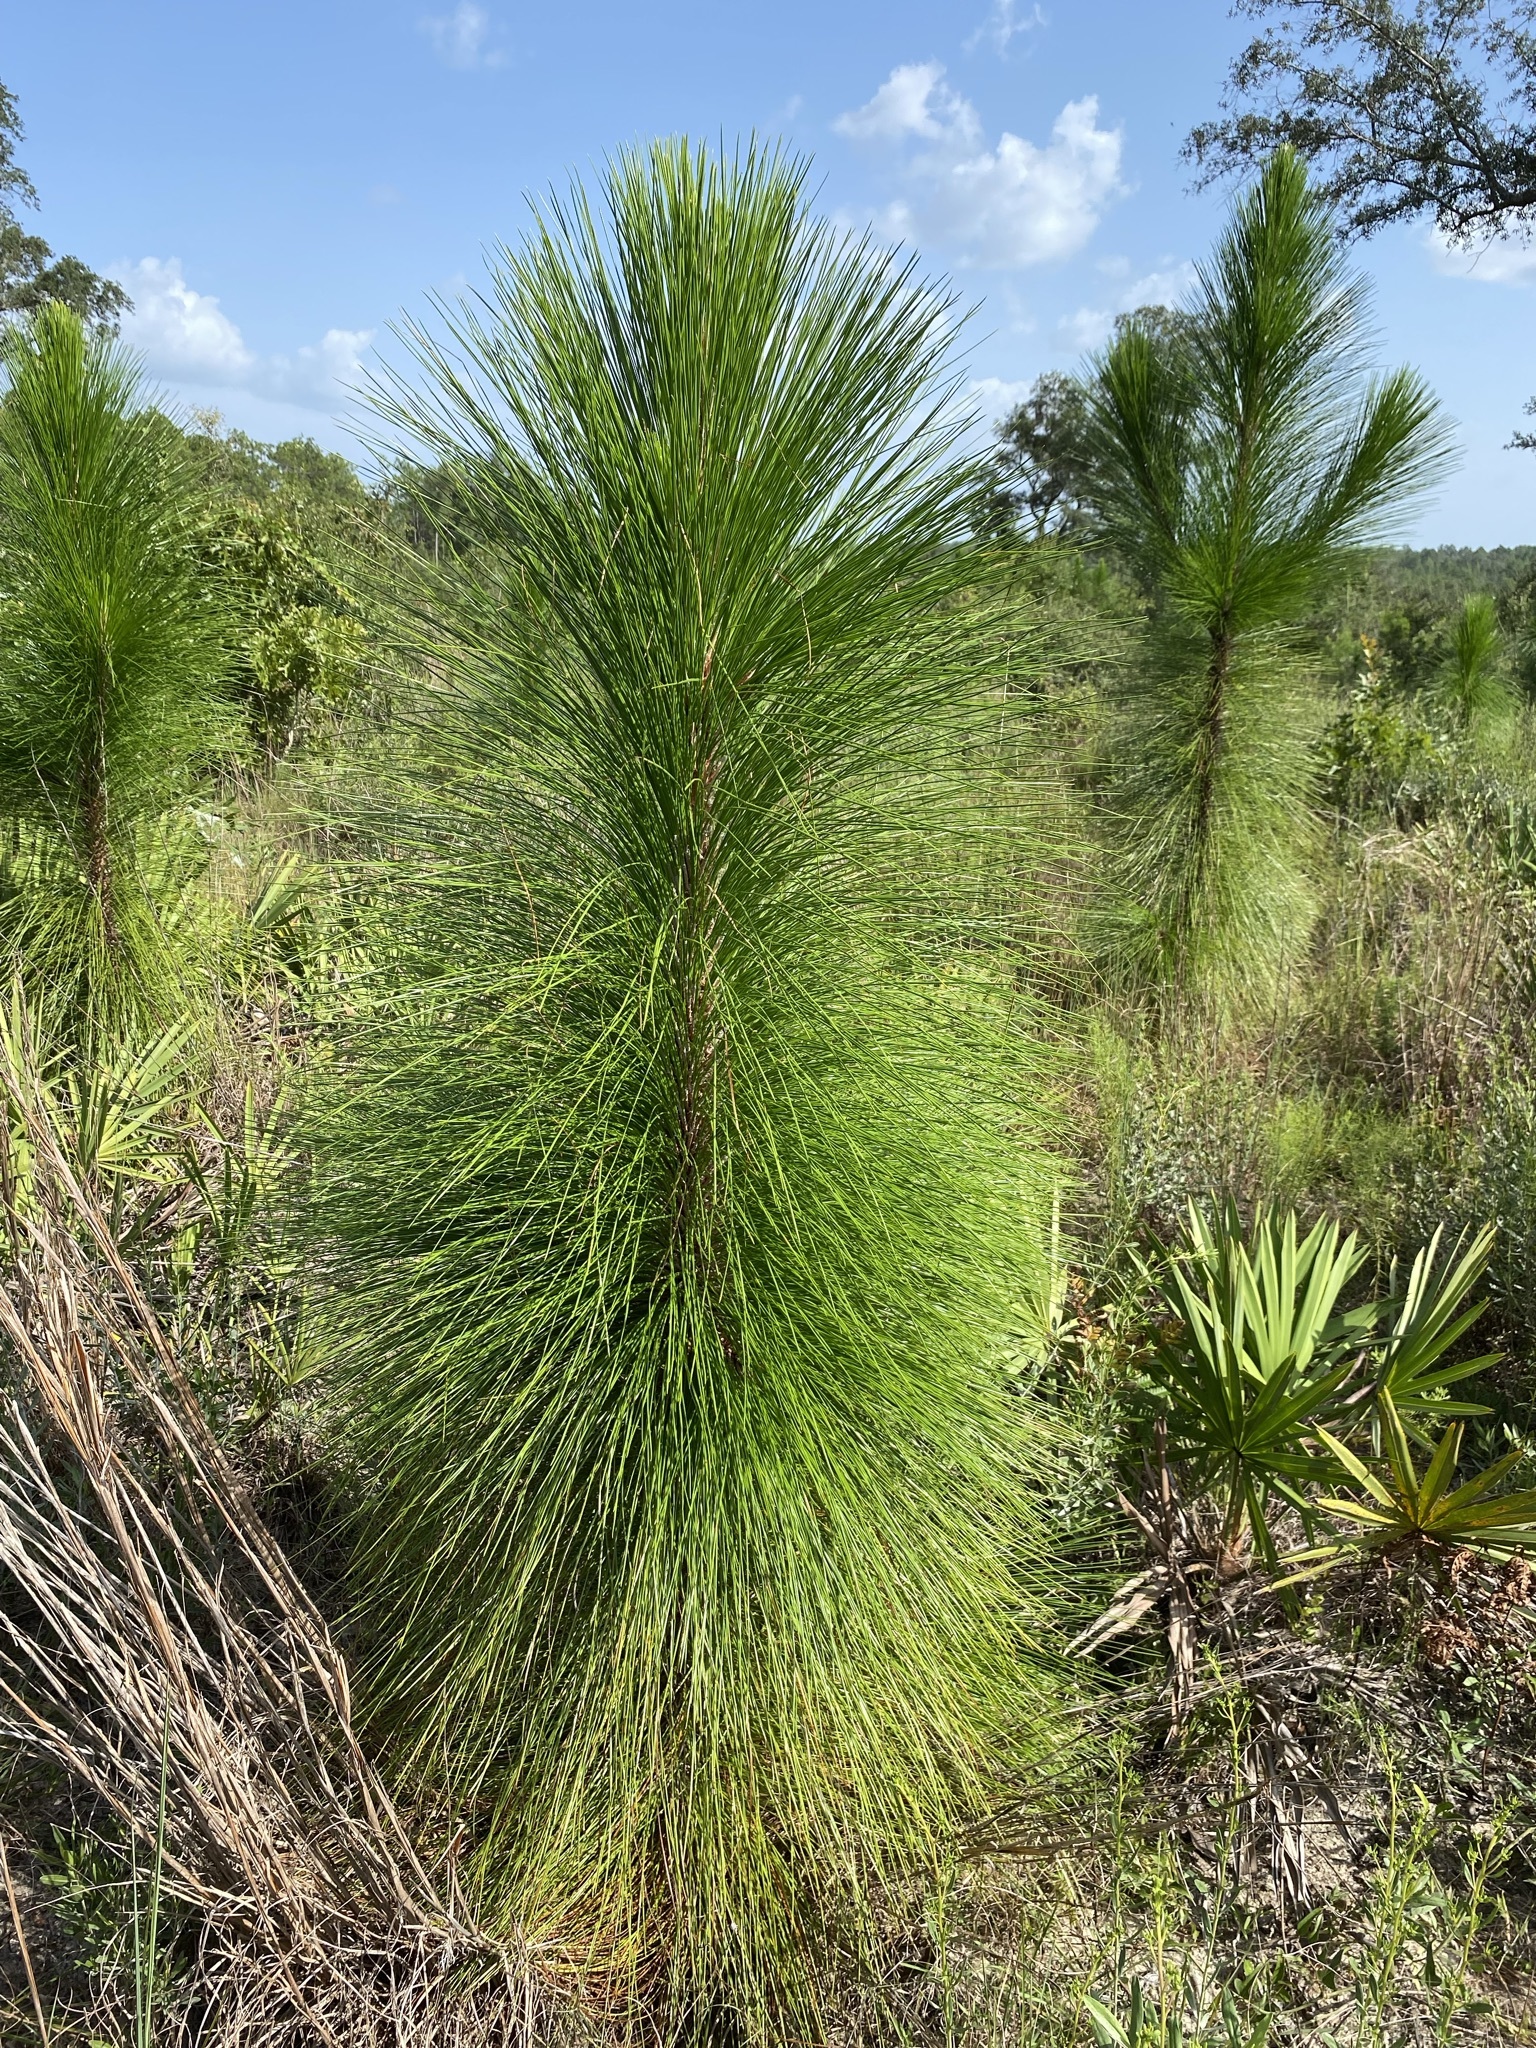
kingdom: Plantae
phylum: Tracheophyta
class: Pinopsida
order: Pinales
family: Pinaceae
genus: Pinus
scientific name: Pinus palustris
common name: Longleaf pine
